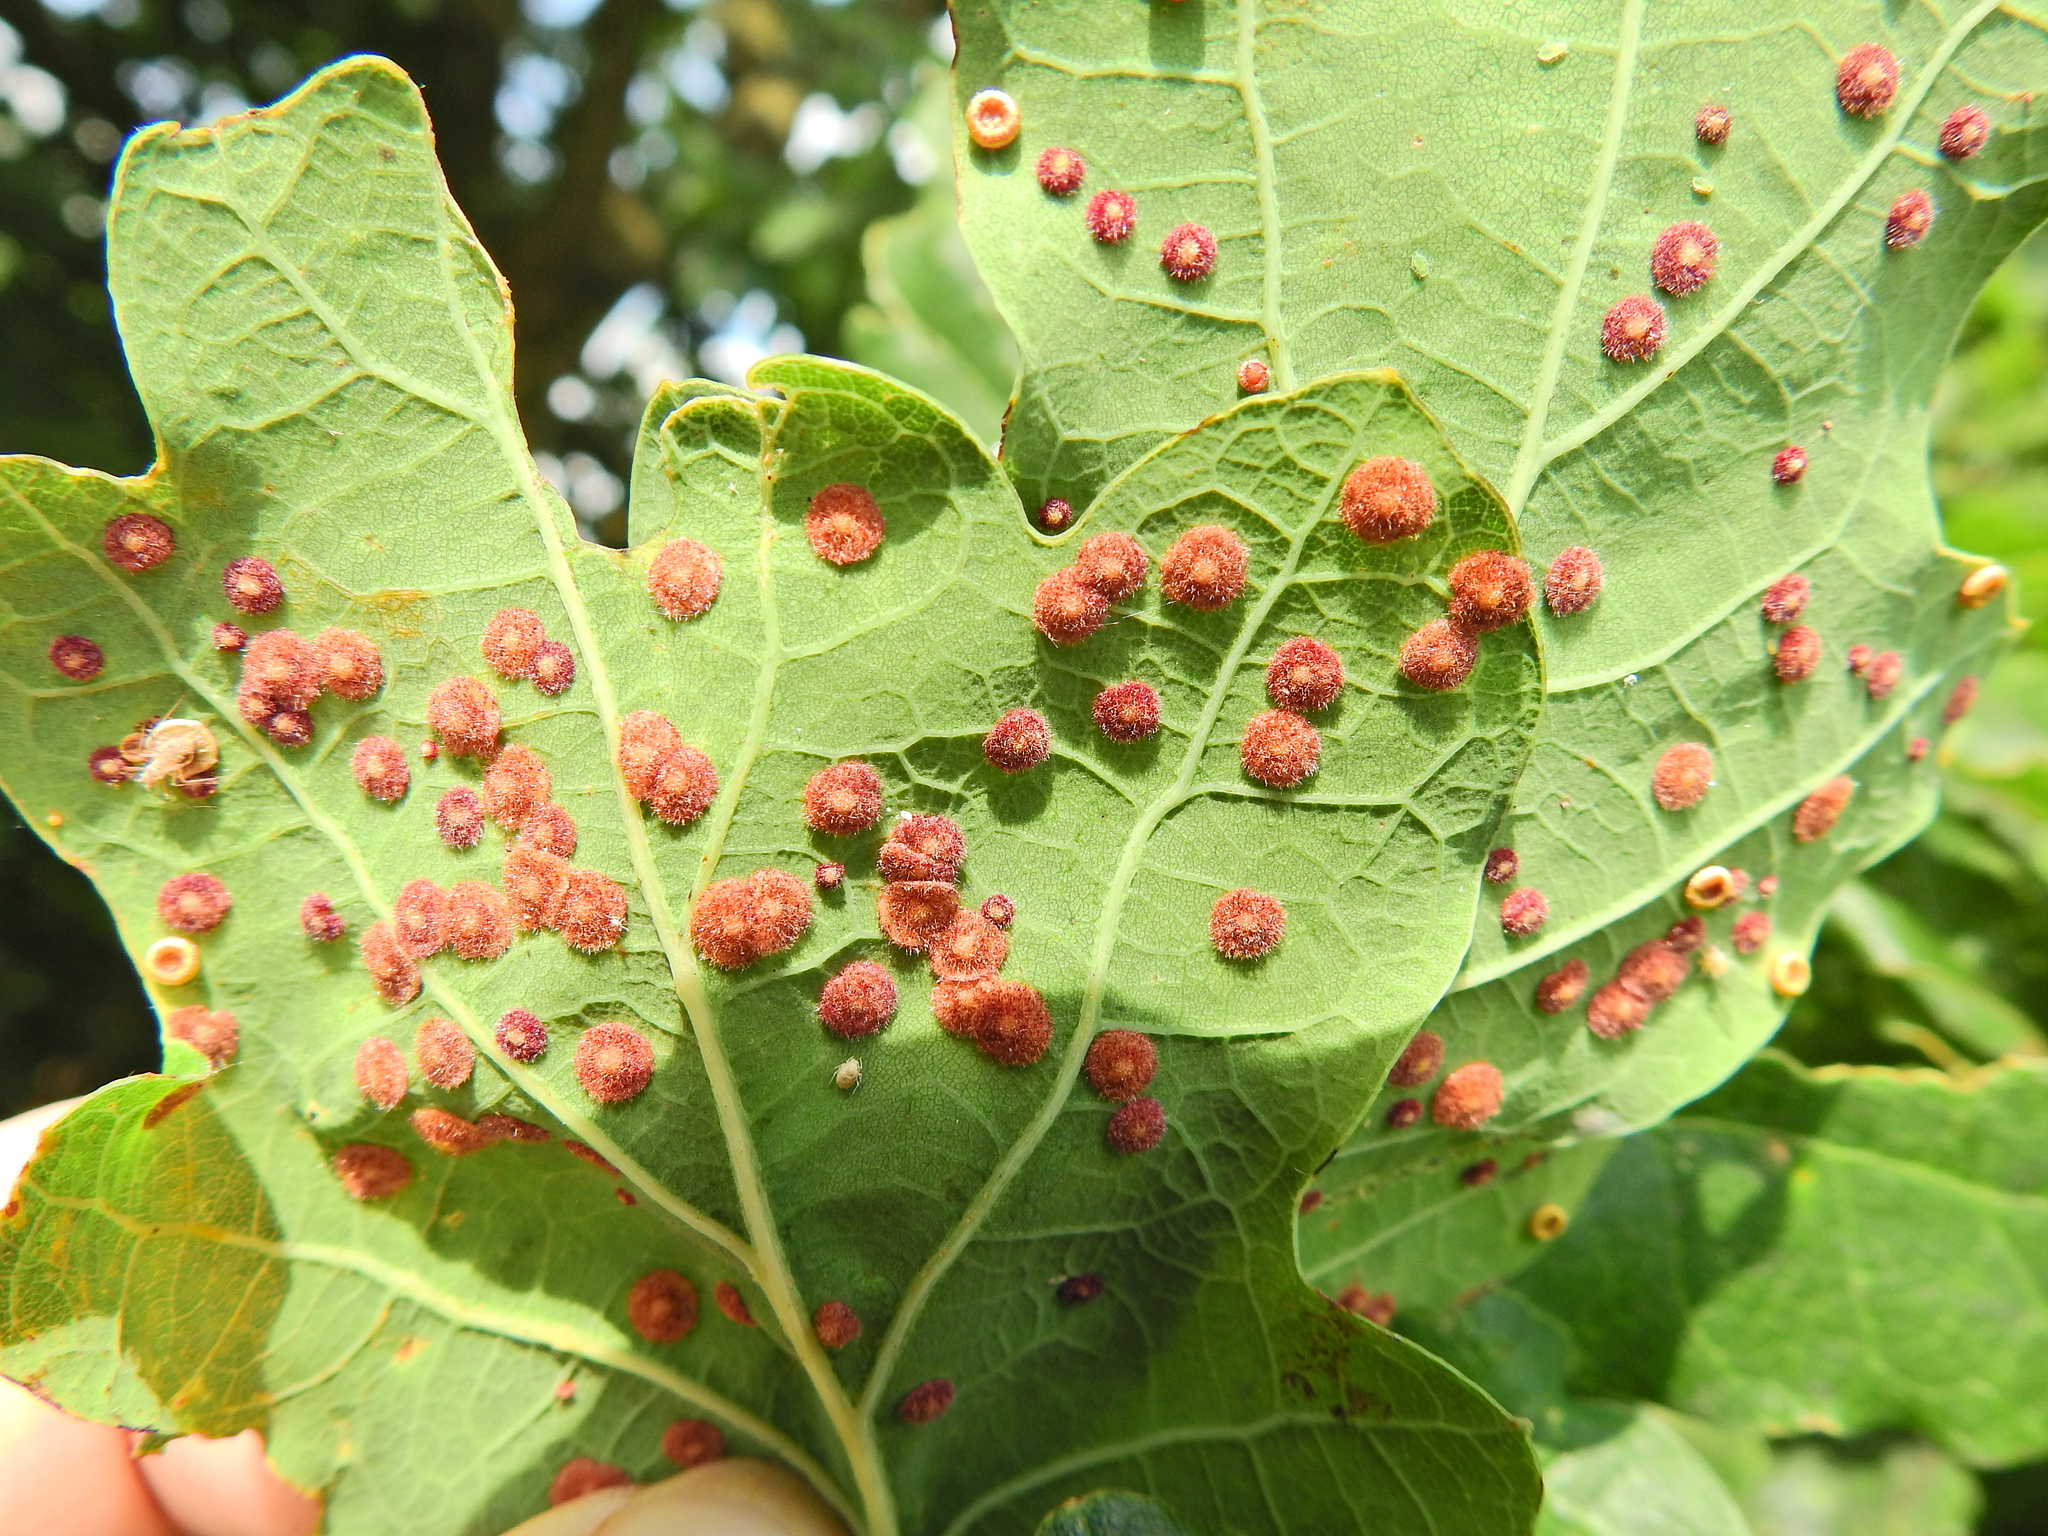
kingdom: Animalia
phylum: Arthropoda
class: Insecta
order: Hymenoptera
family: Cynipidae
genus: Neuroterus
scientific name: Neuroterus quercusbaccarum
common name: Common spangle gall
